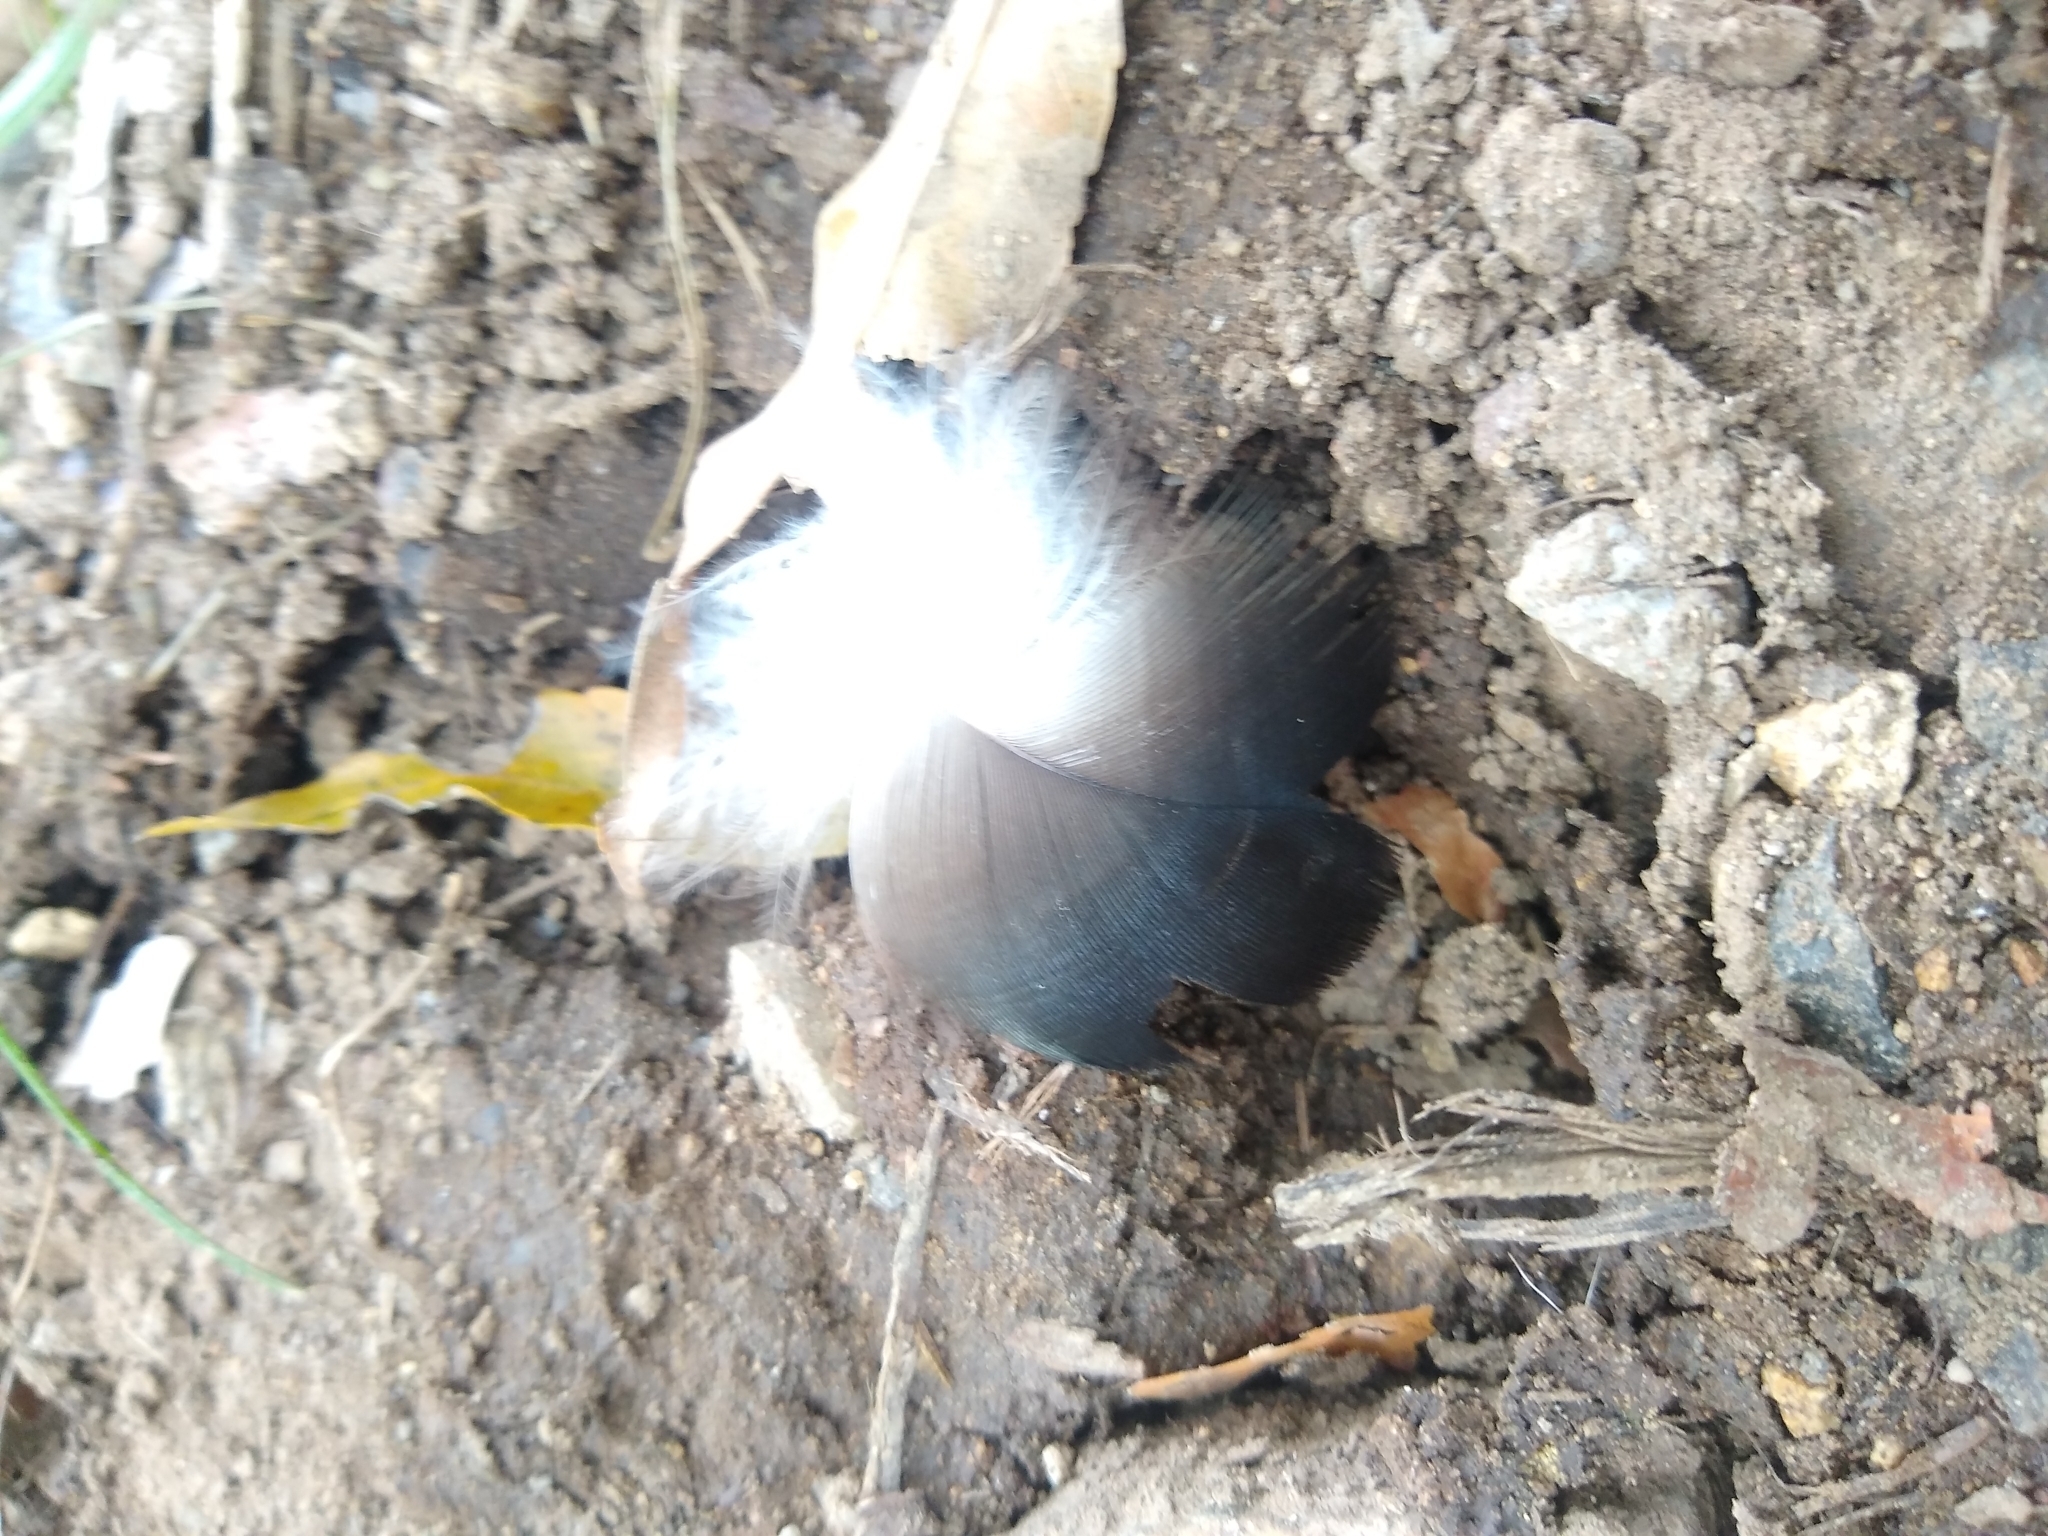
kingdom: Animalia
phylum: Chordata
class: Aves
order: Accipitriformes
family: Cathartidae
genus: Cathartes
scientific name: Cathartes aura
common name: Turkey vulture
